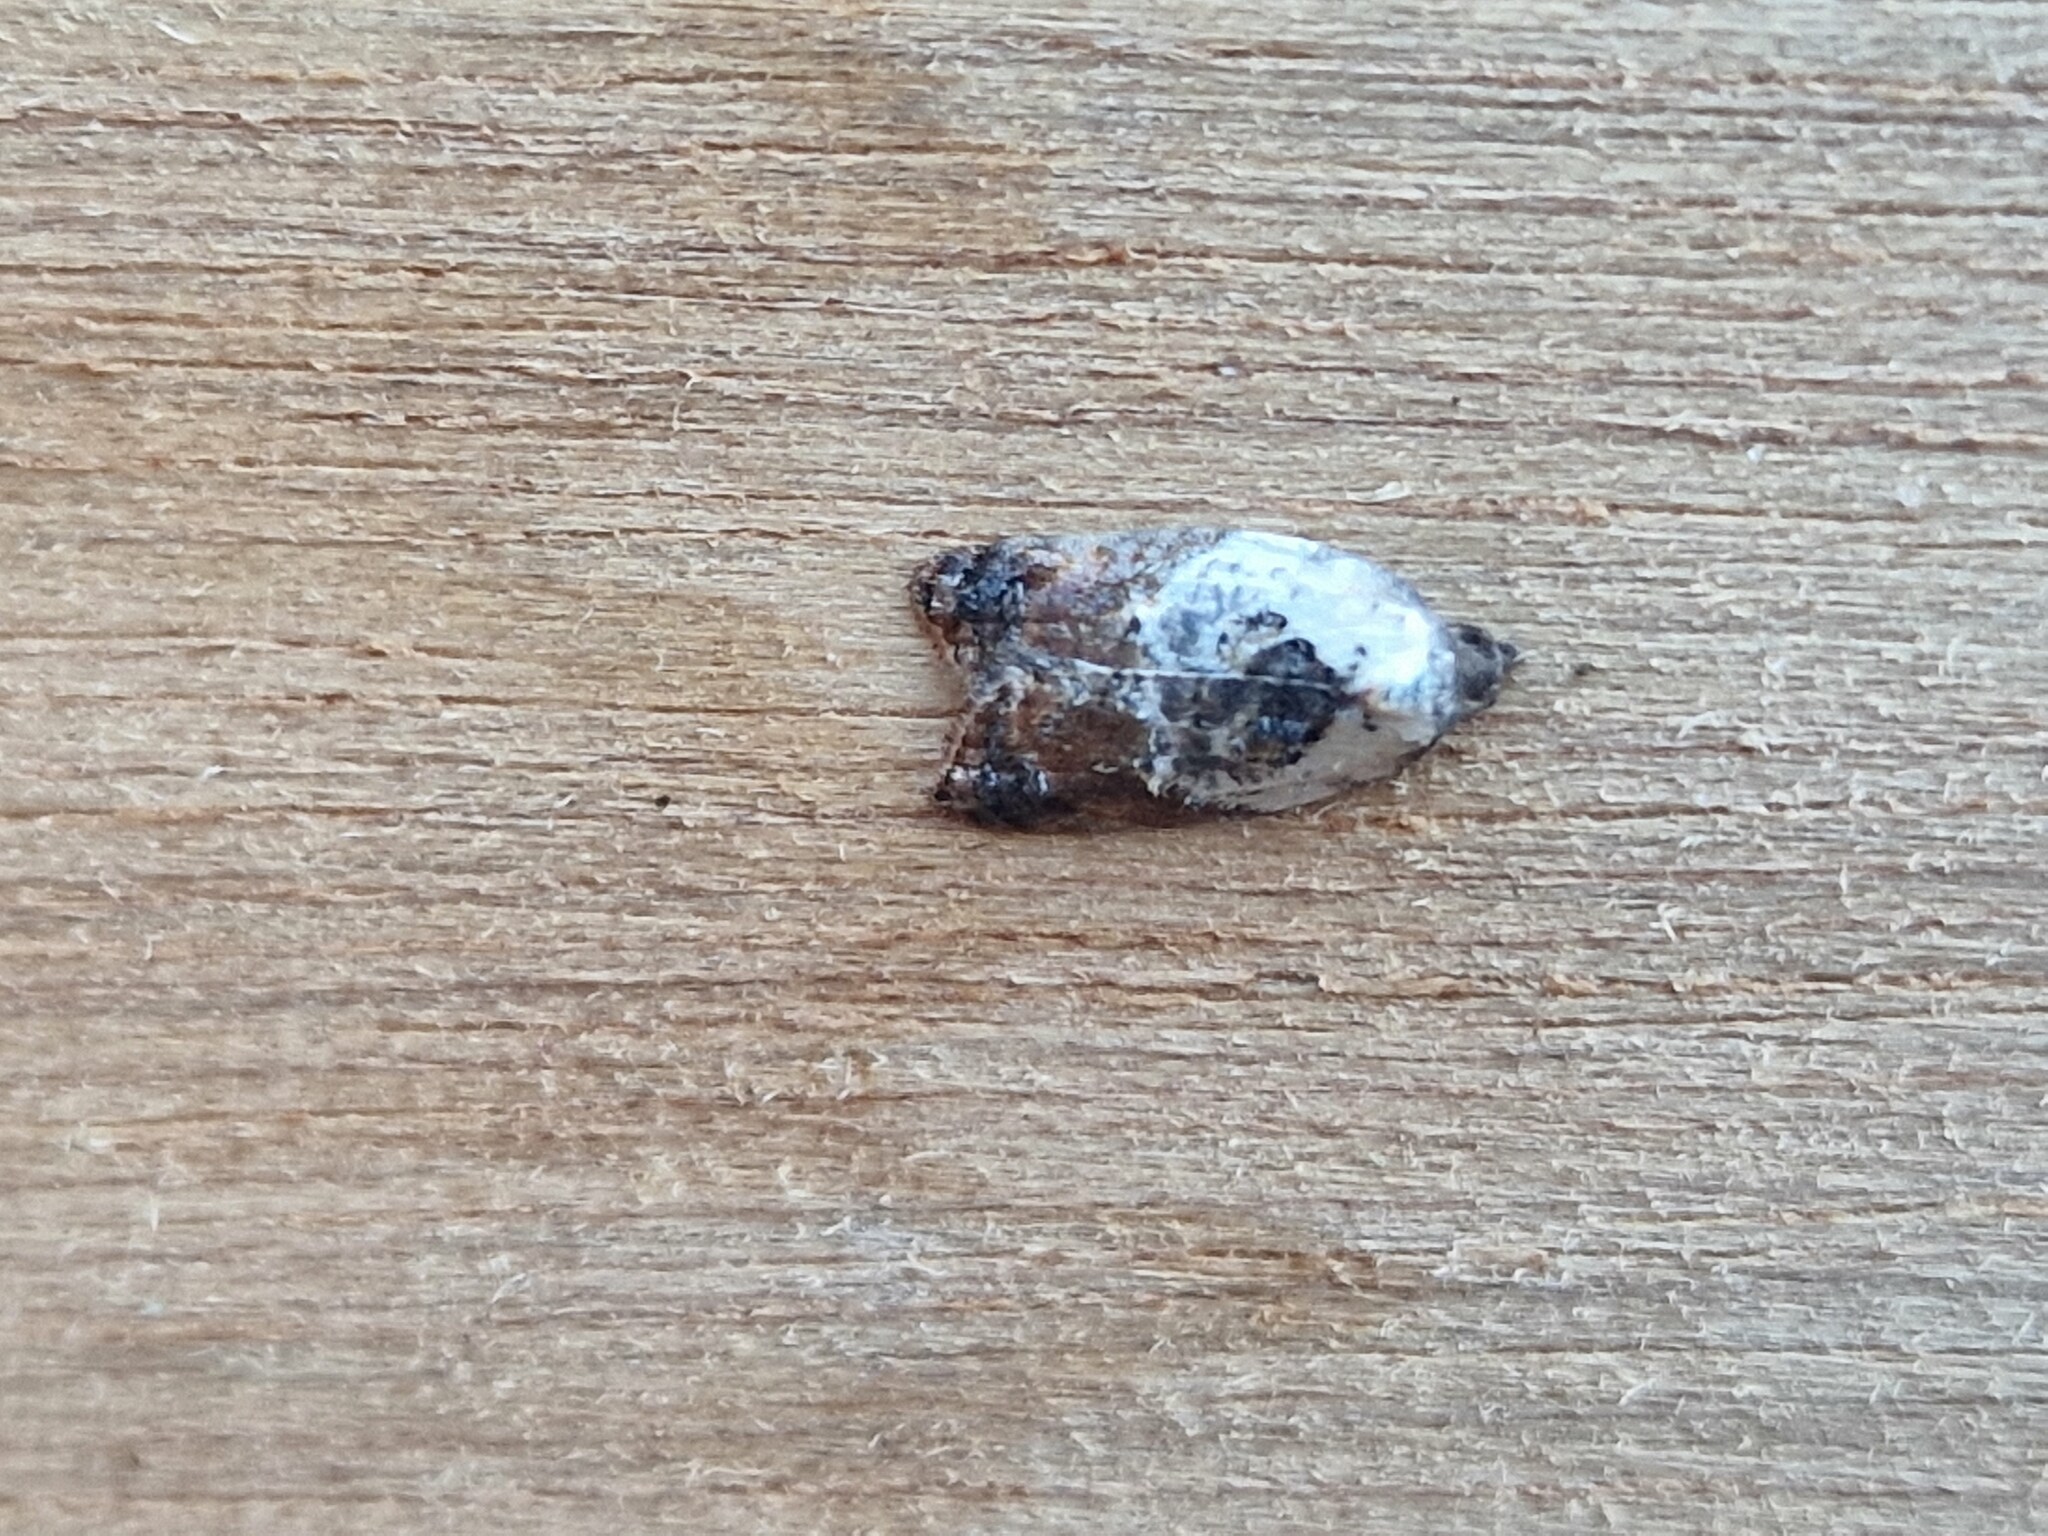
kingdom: Animalia
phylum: Arthropoda
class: Insecta
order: Lepidoptera
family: Tortricidae
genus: Acleris
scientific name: Acleris variegana
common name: Garden rose tortrix
